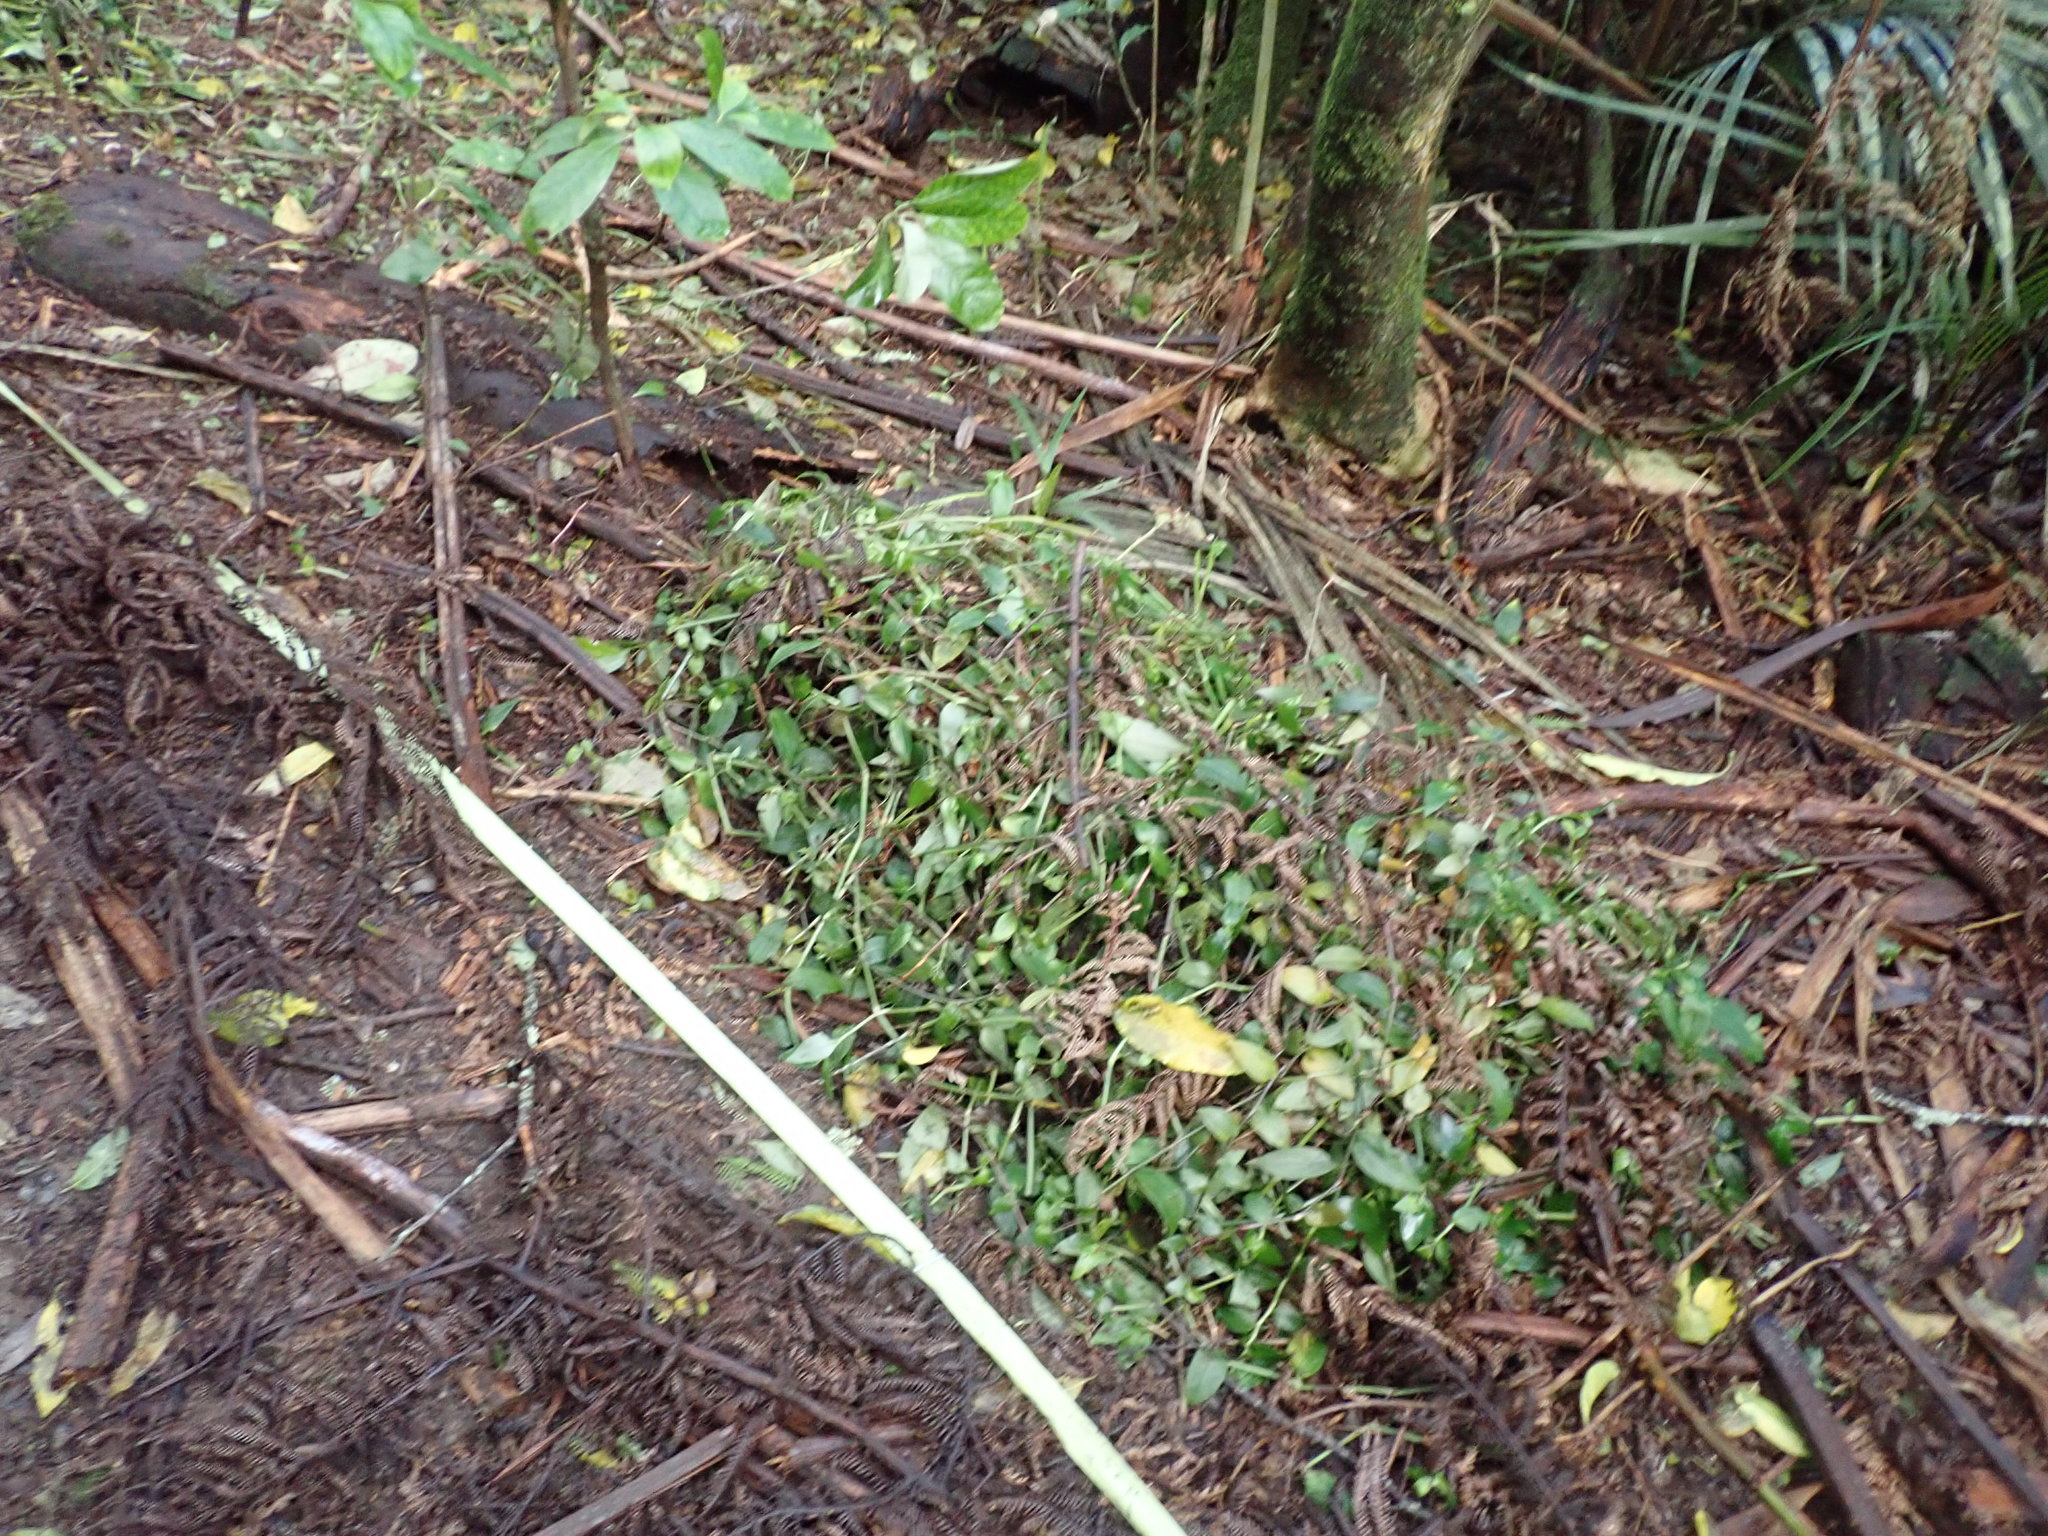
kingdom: Plantae
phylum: Tracheophyta
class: Liliopsida
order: Commelinales
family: Commelinaceae
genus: Tradescantia
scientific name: Tradescantia fluminensis
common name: Wandering-jew
